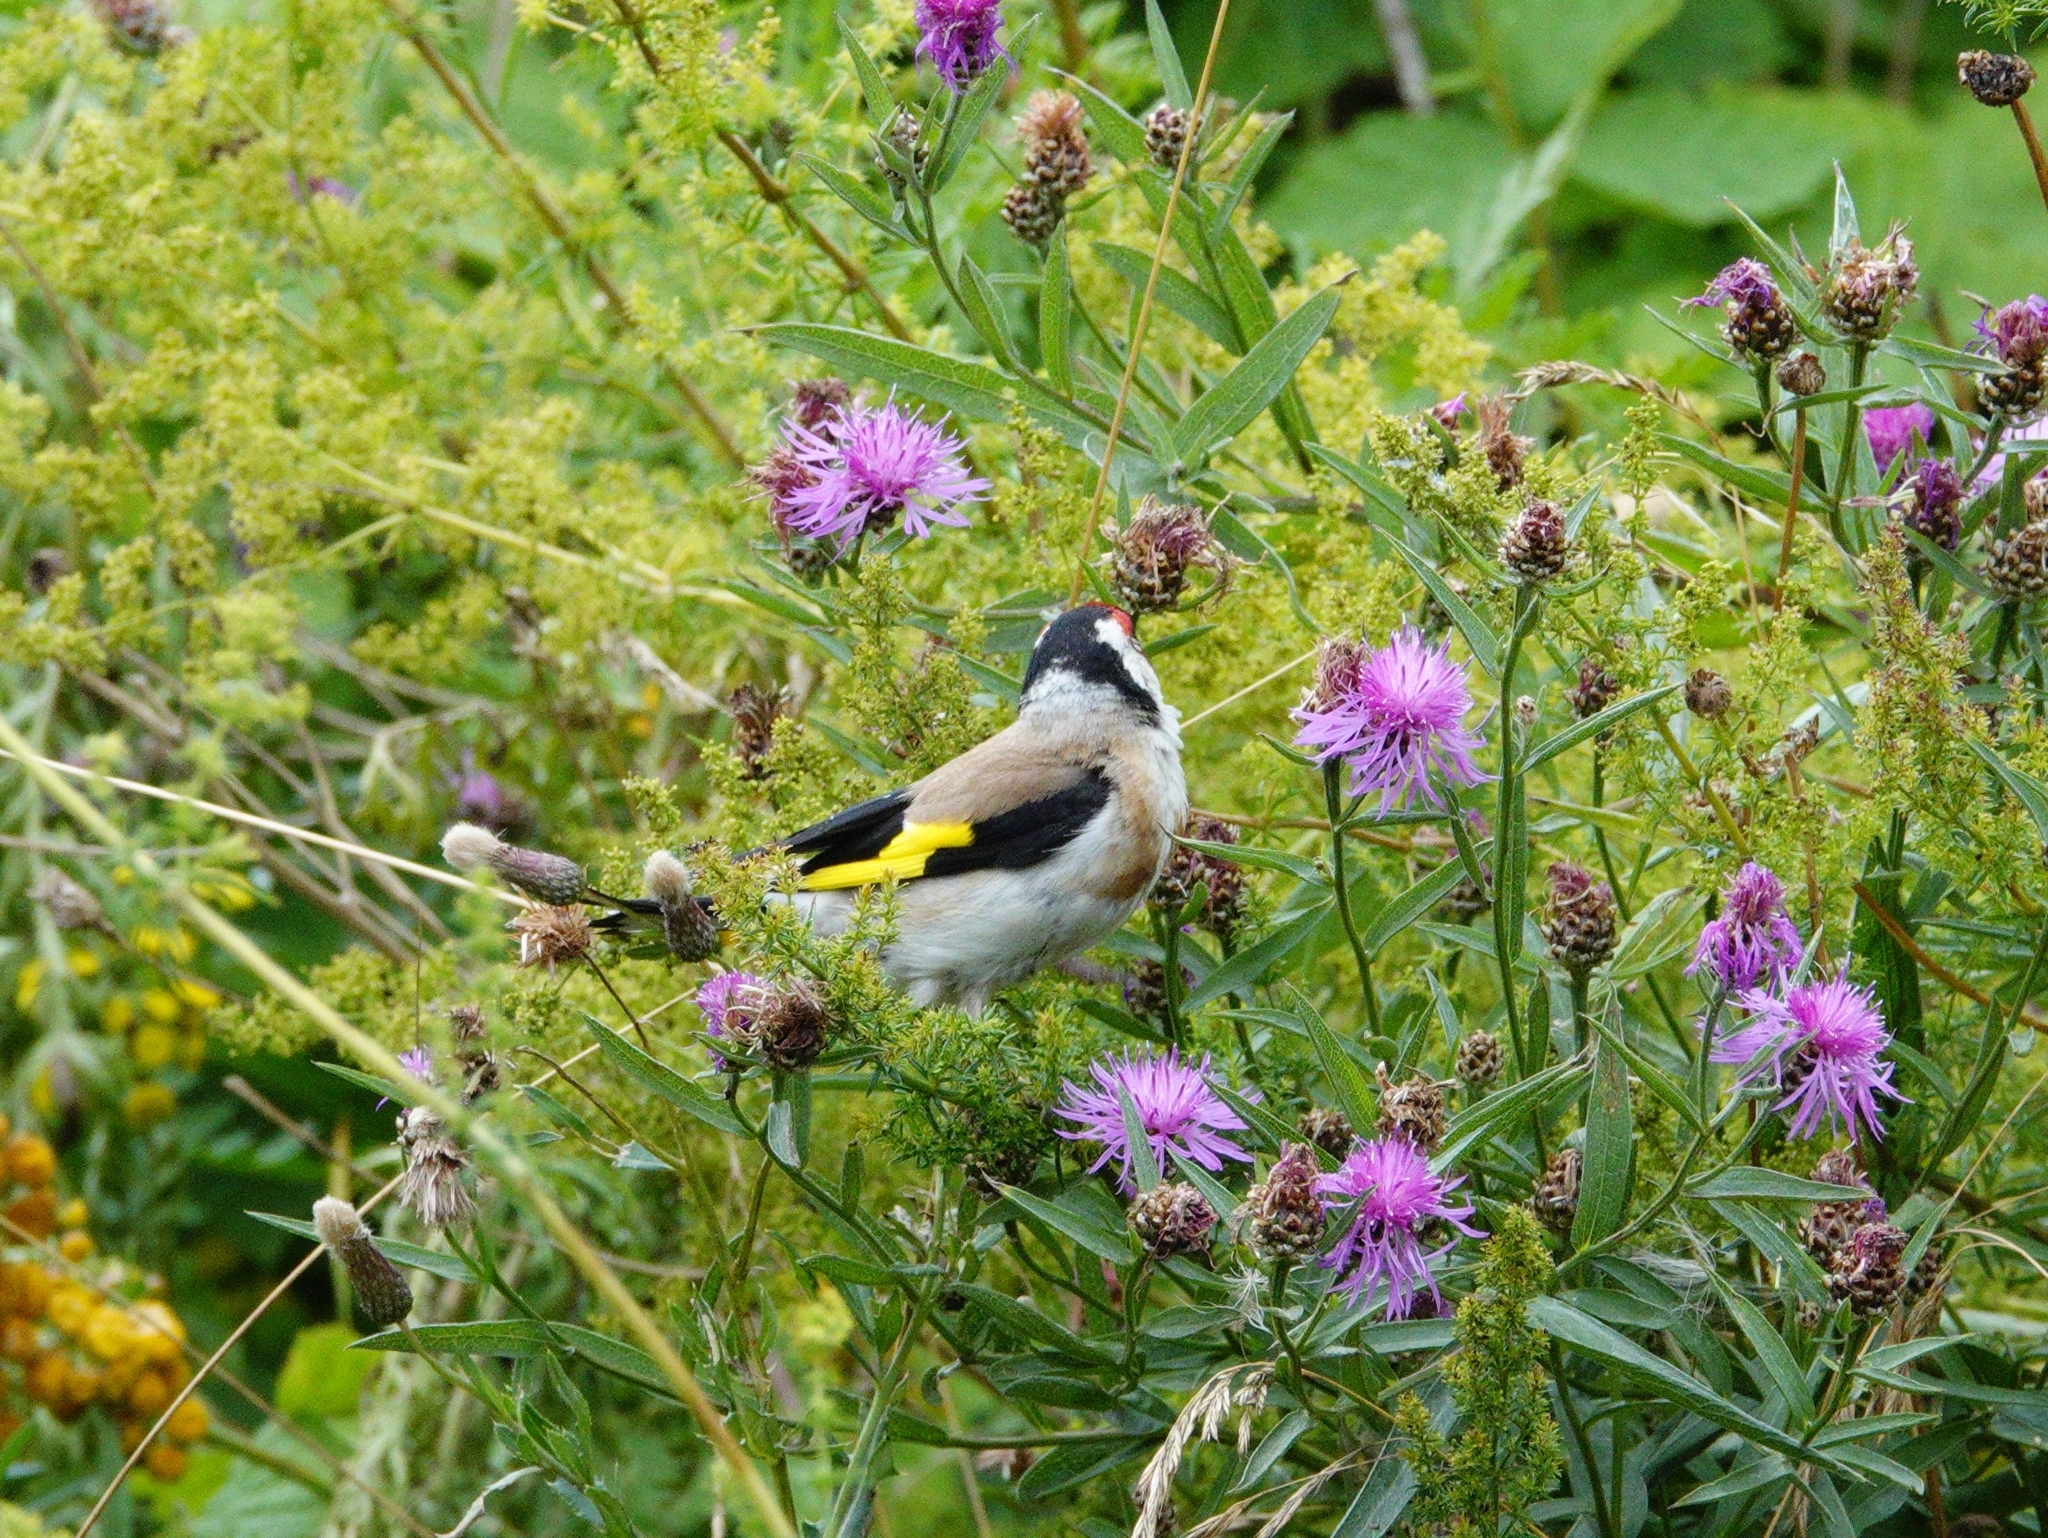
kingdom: Animalia
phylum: Chordata
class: Aves
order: Passeriformes
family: Fringillidae
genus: Carduelis
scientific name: Carduelis carduelis
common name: European goldfinch
